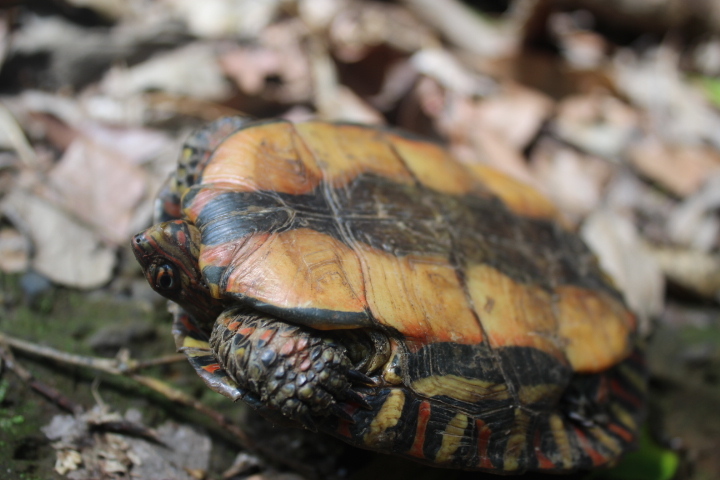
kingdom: Animalia
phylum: Chordata
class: Testudines
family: Geoemydidae
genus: Rhinoclemmys
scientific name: Rhinoclemmys pulcherrima
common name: Painted wood turtle
